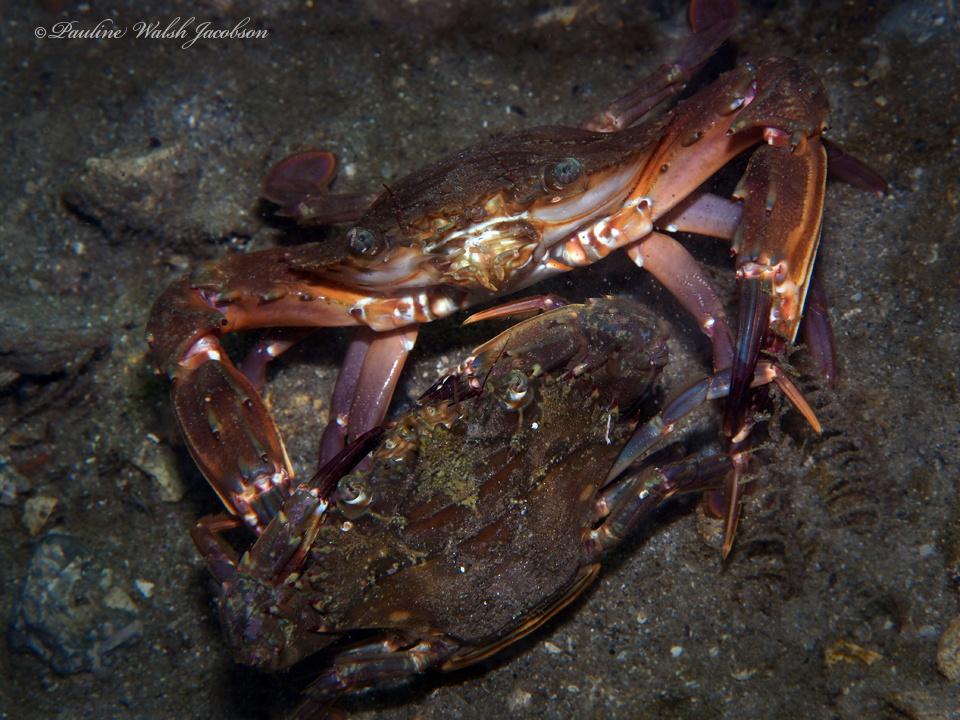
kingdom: Animalia
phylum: Arthropoda
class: Malacostraca
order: Decapoda
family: Portunidae
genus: Charybdis
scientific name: Charybdis hellerii
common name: Spiny hands
